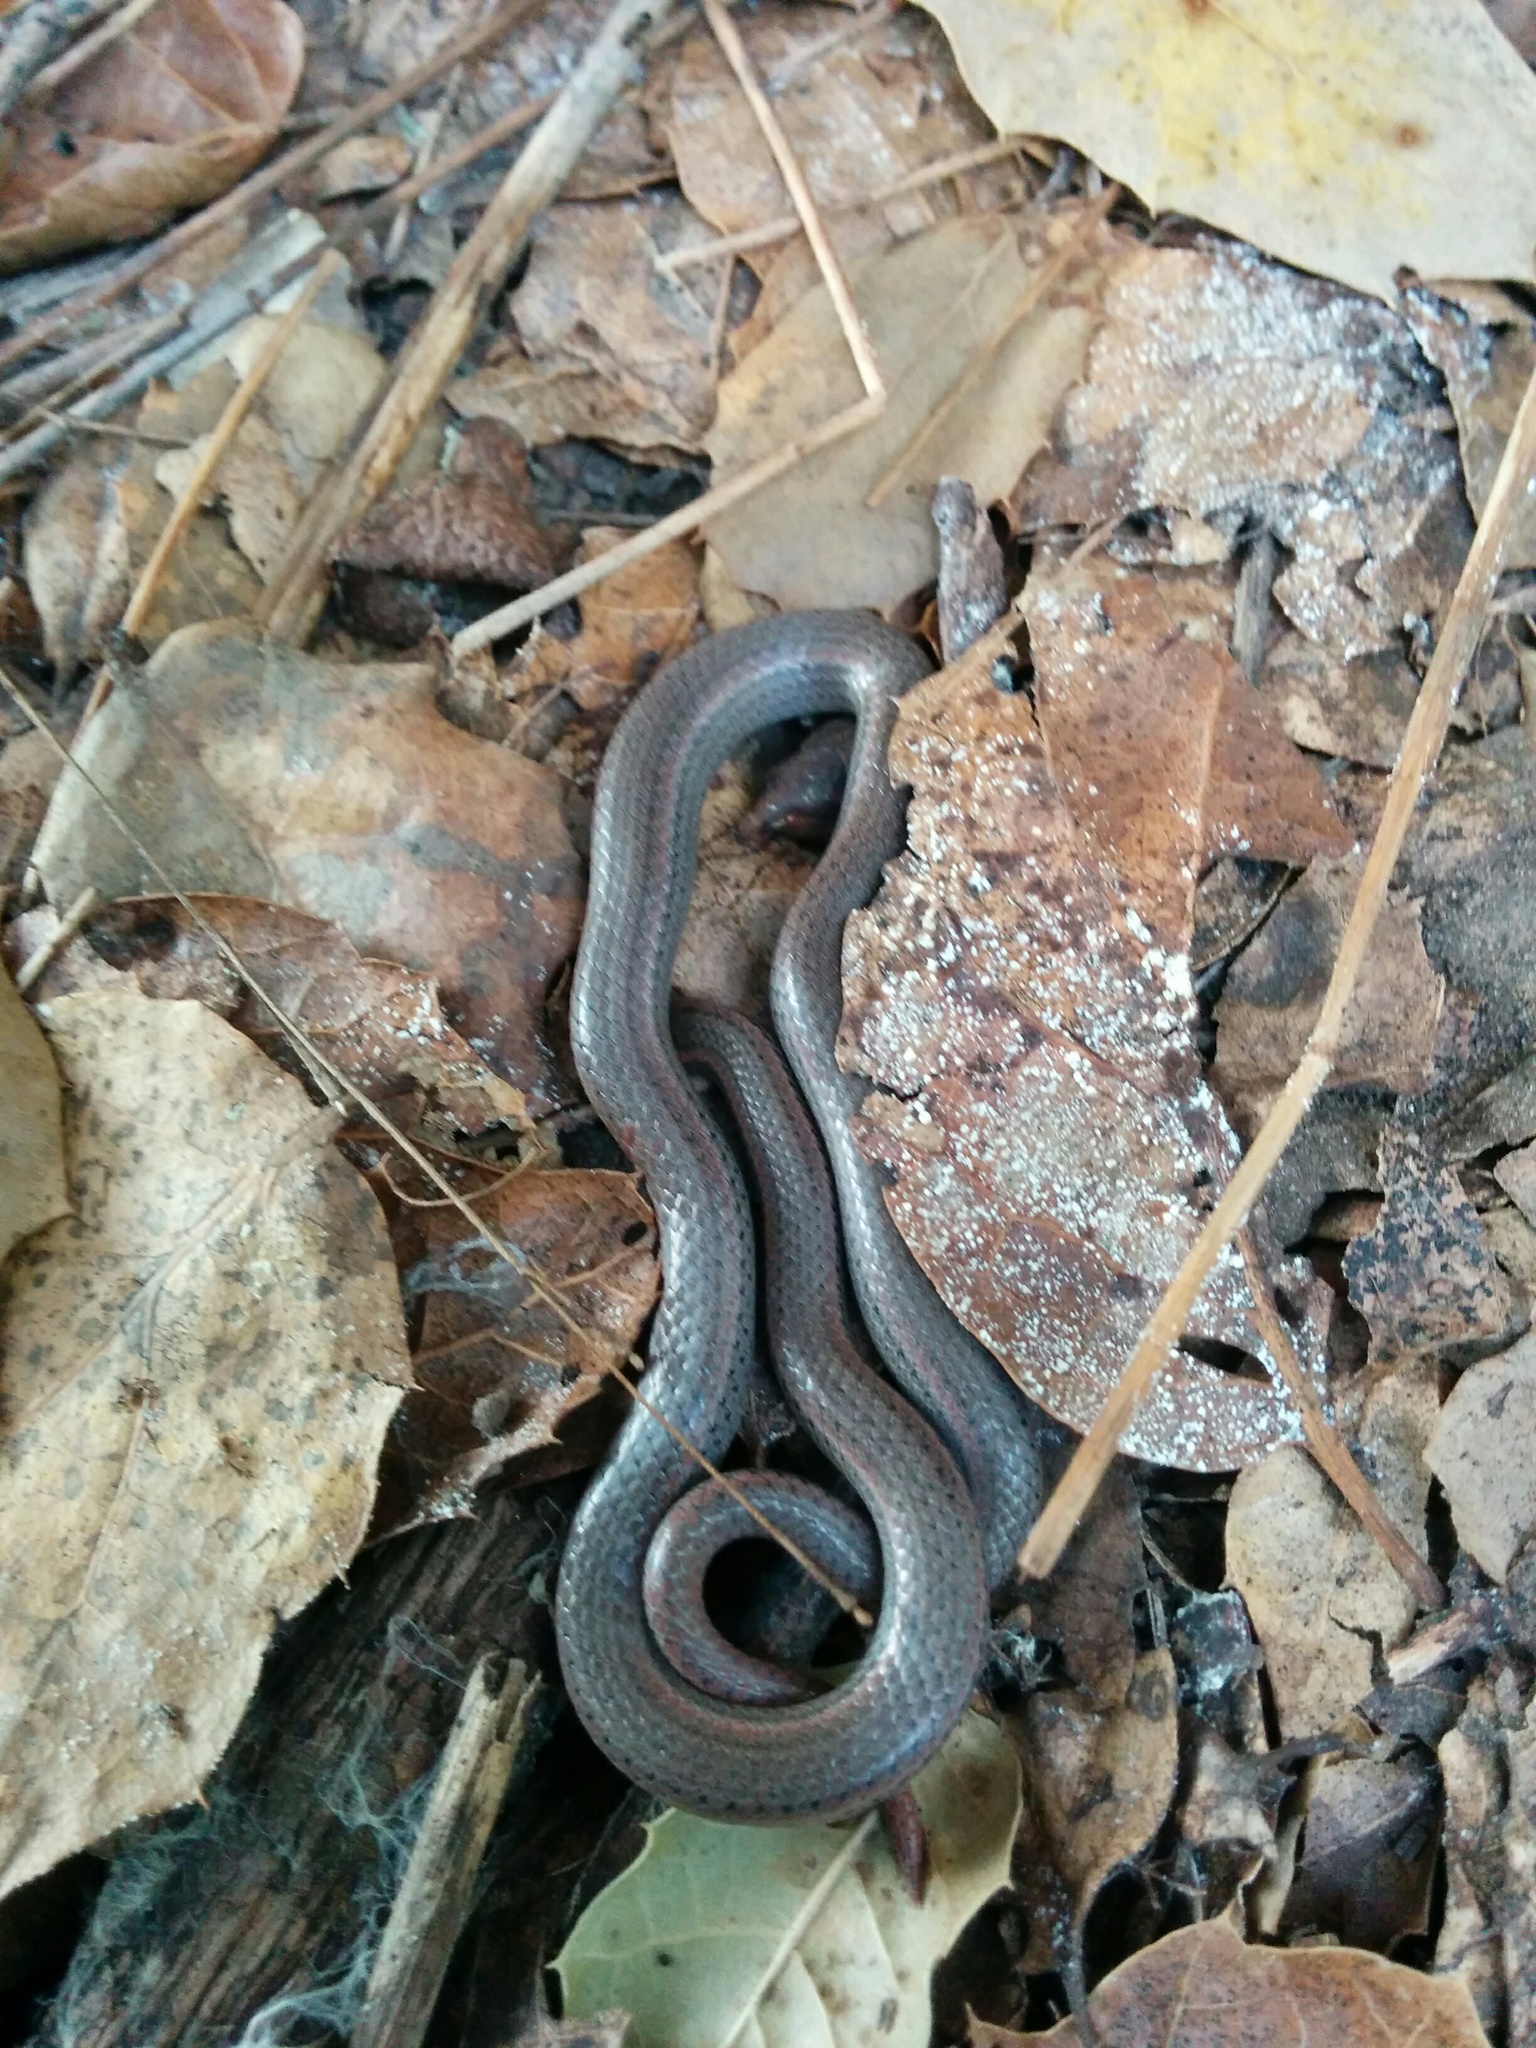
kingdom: Animalia
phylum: Chordata
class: Squamata
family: Colubridae
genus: Contia
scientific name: Contia tenuis
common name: Sharptail snake
